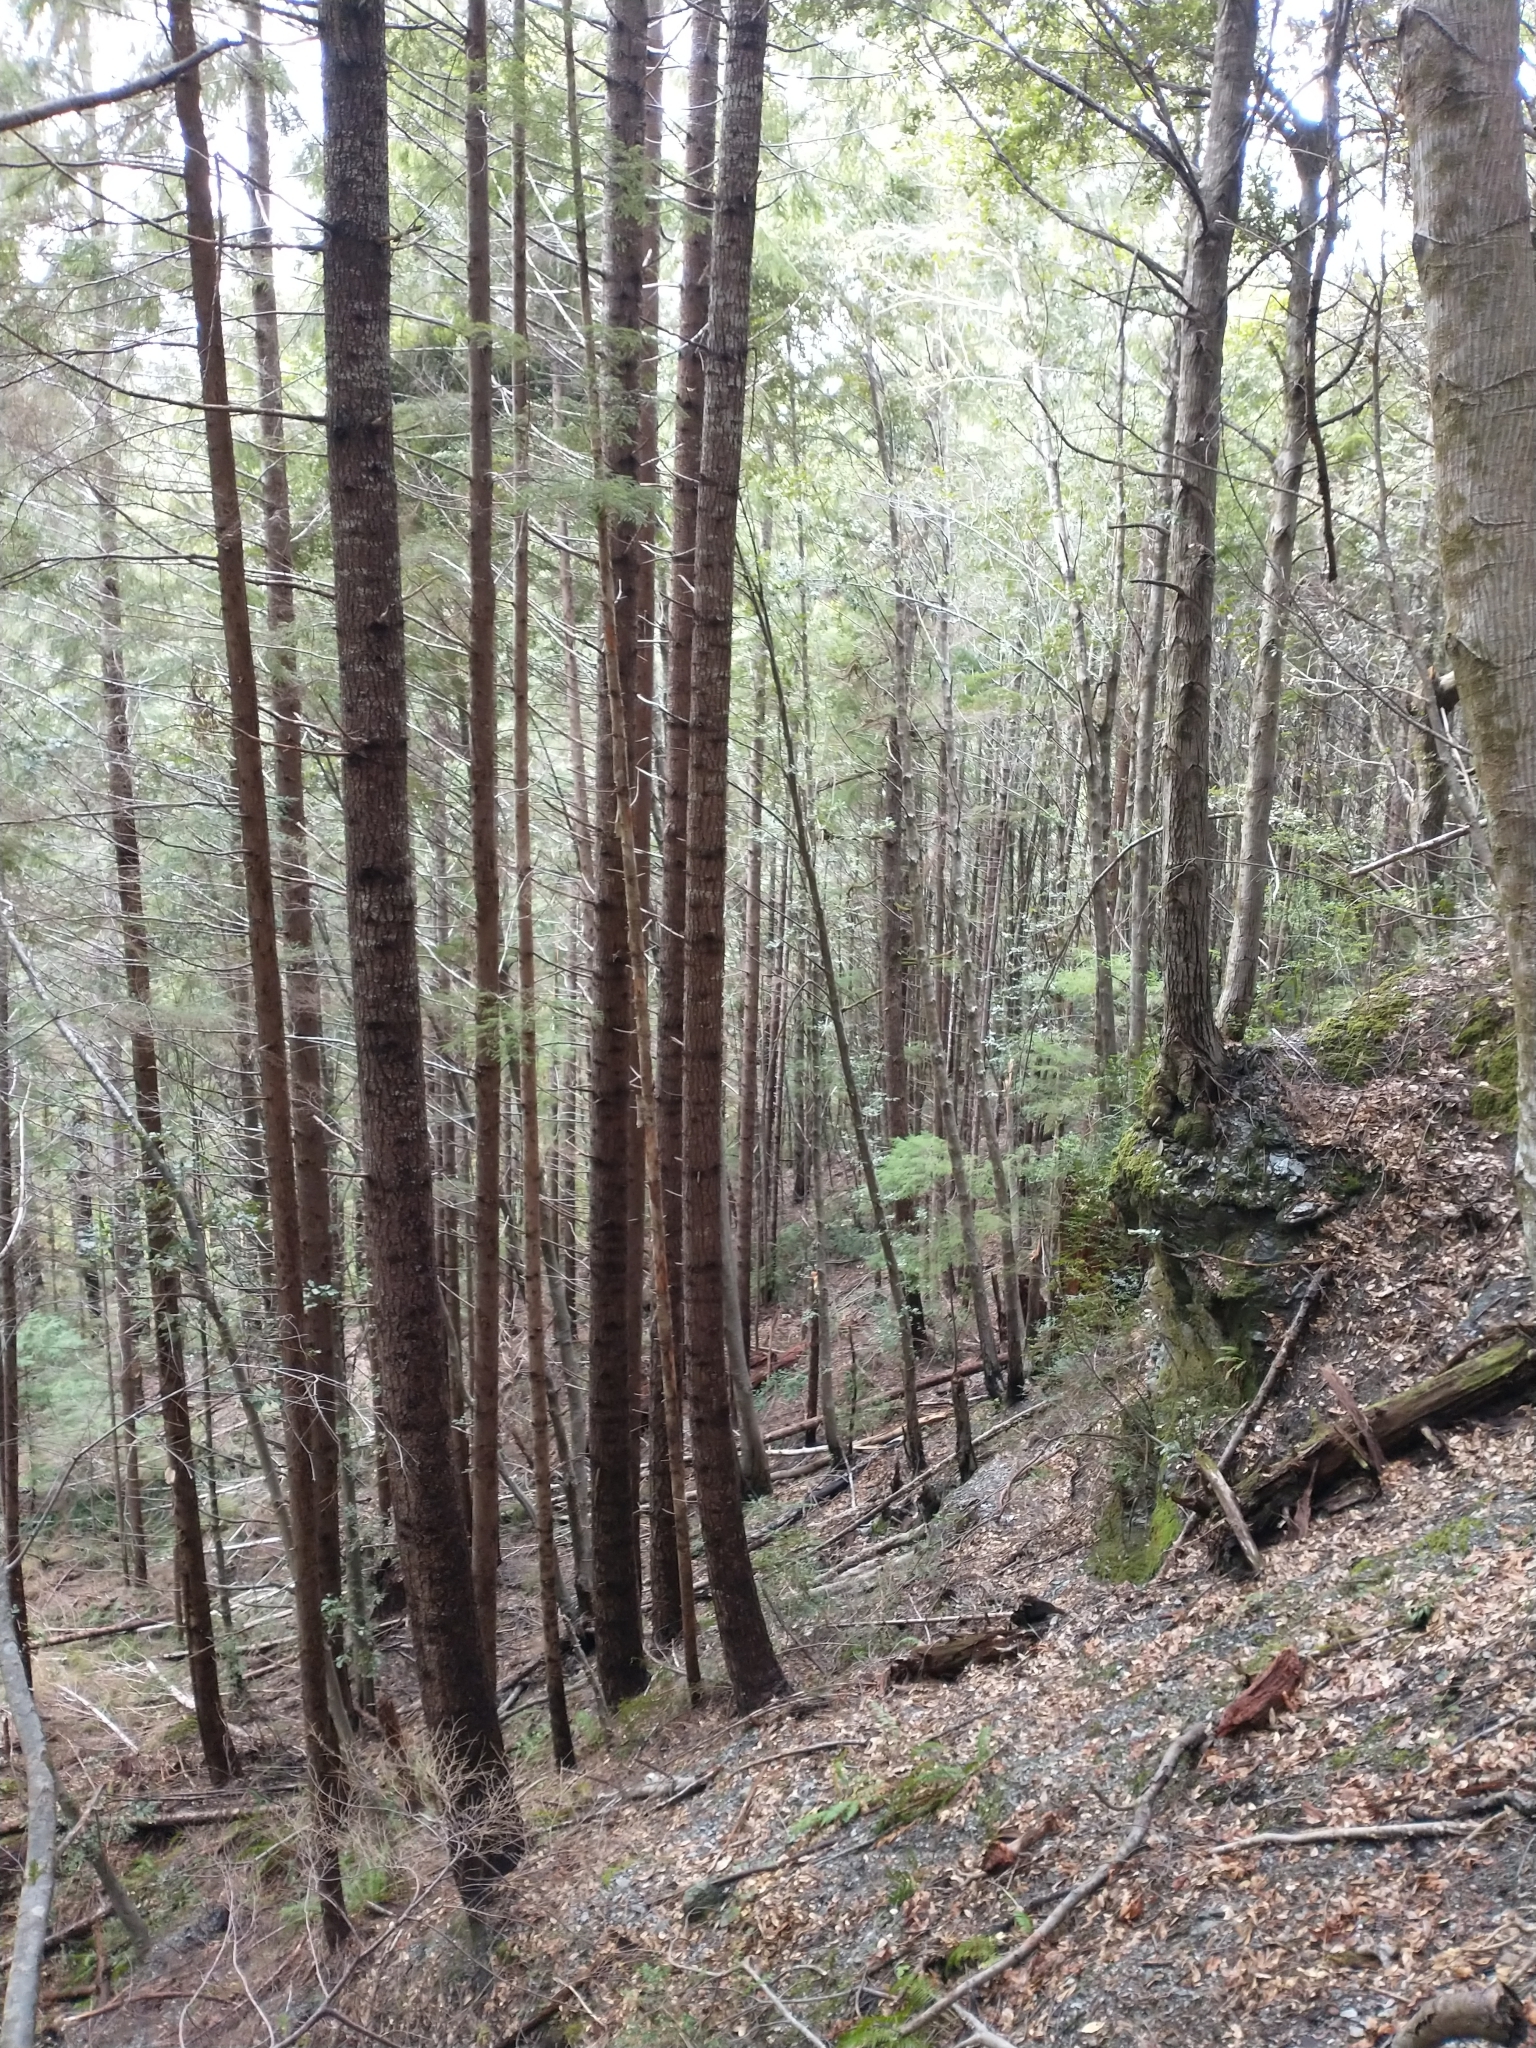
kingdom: Plantae
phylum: Tracheophyta
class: Pinopsida
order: Pinales
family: Pinaceae
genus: Pseudotsuga
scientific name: Pseudotsuga menziesii
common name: Douglas fir
